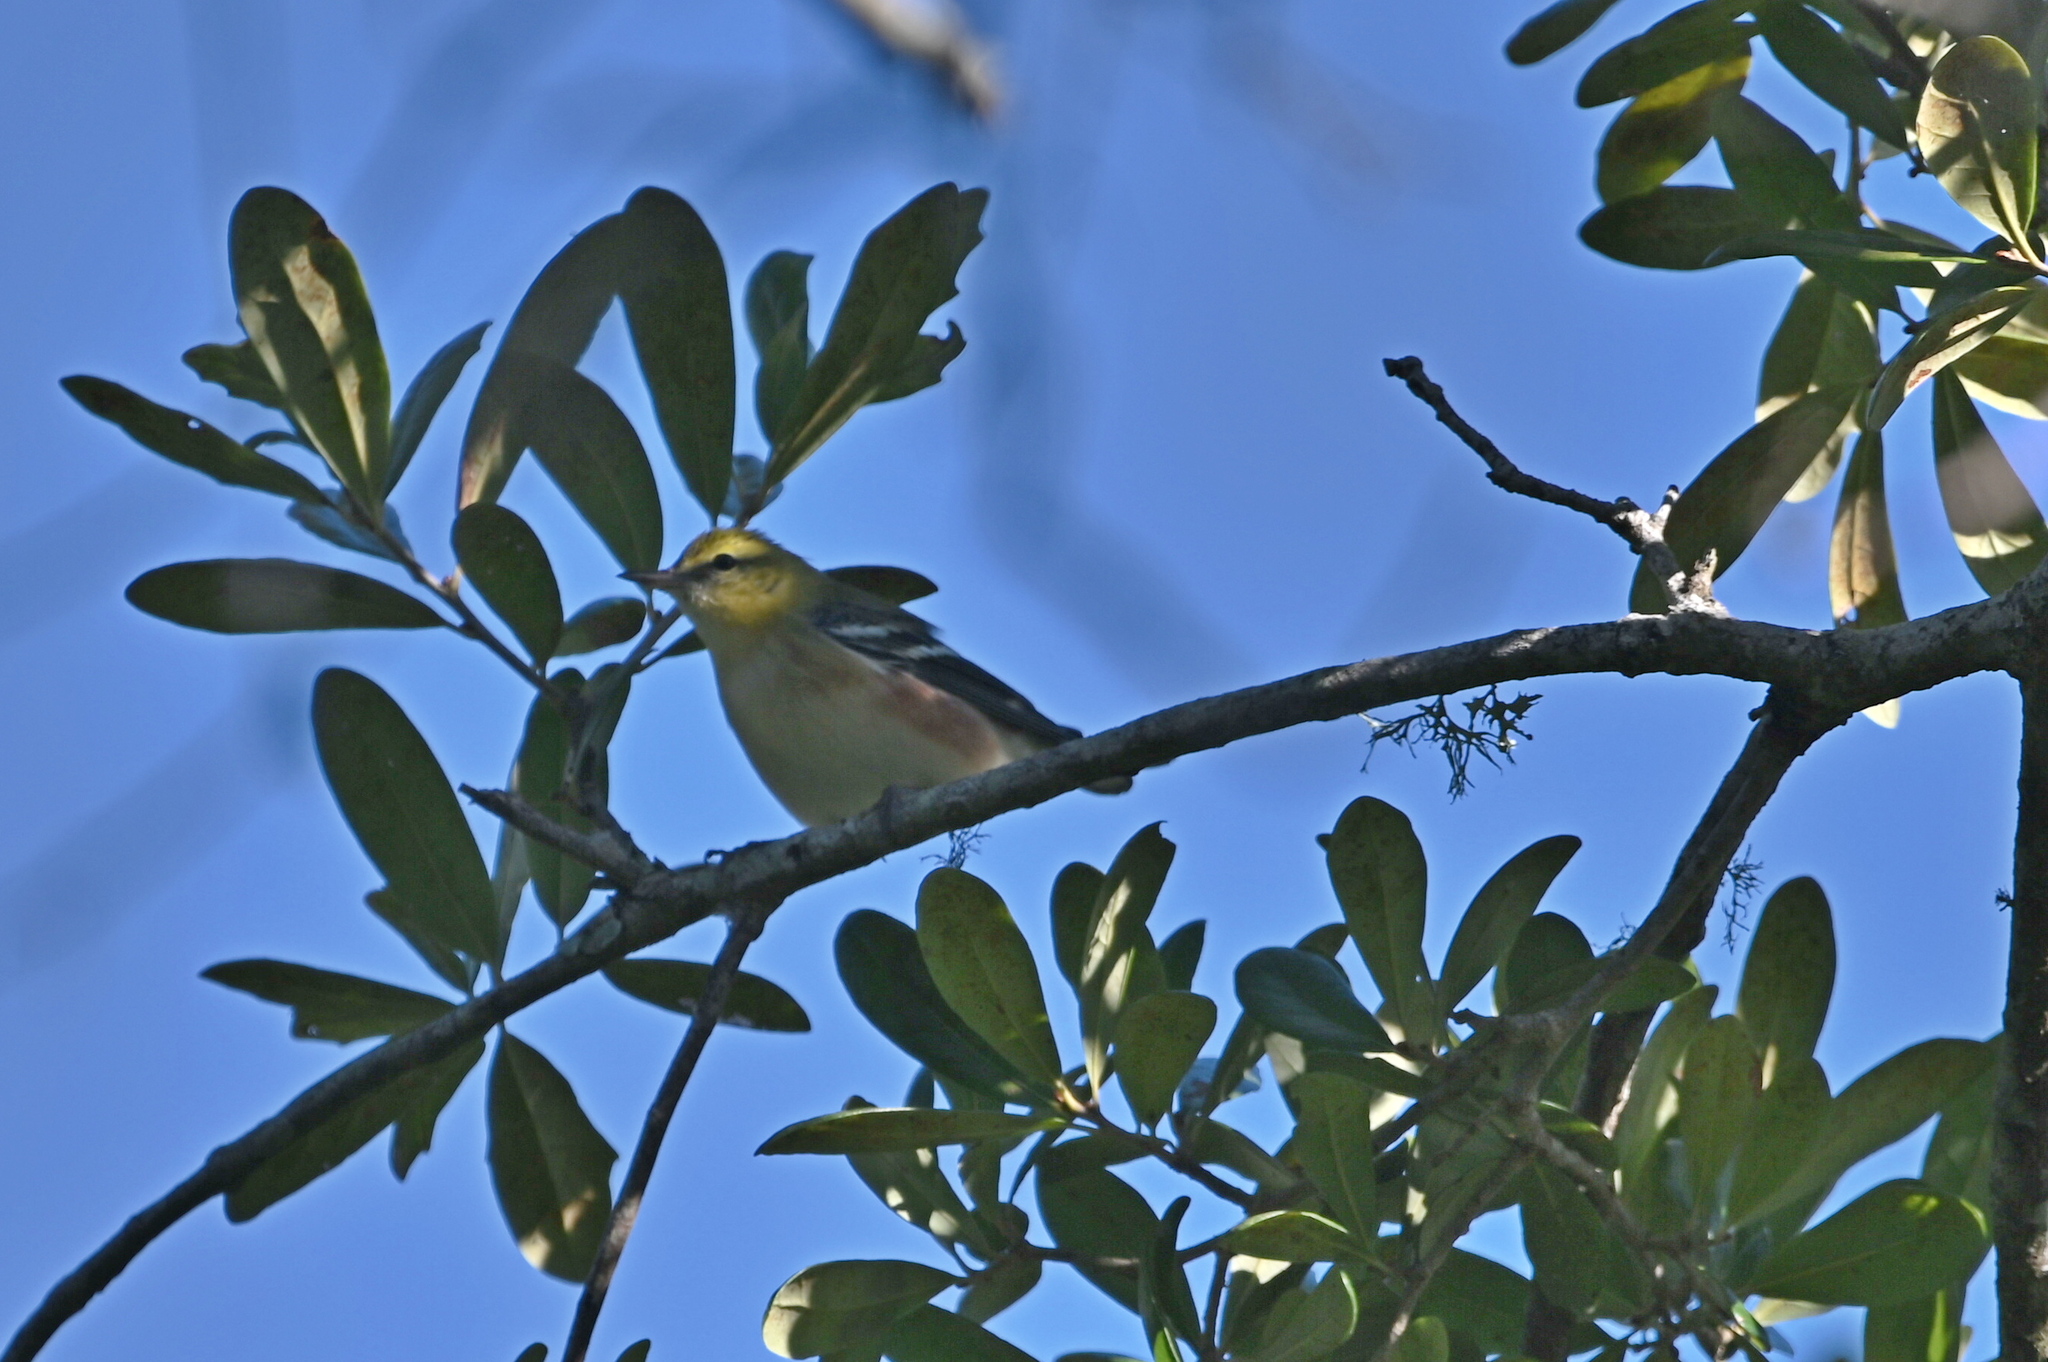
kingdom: Animalia
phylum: Chordata
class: Aves
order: Passeriformes
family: Parulidae
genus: Setophaga
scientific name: Setophaga castanea
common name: Bay-breasted warbler
